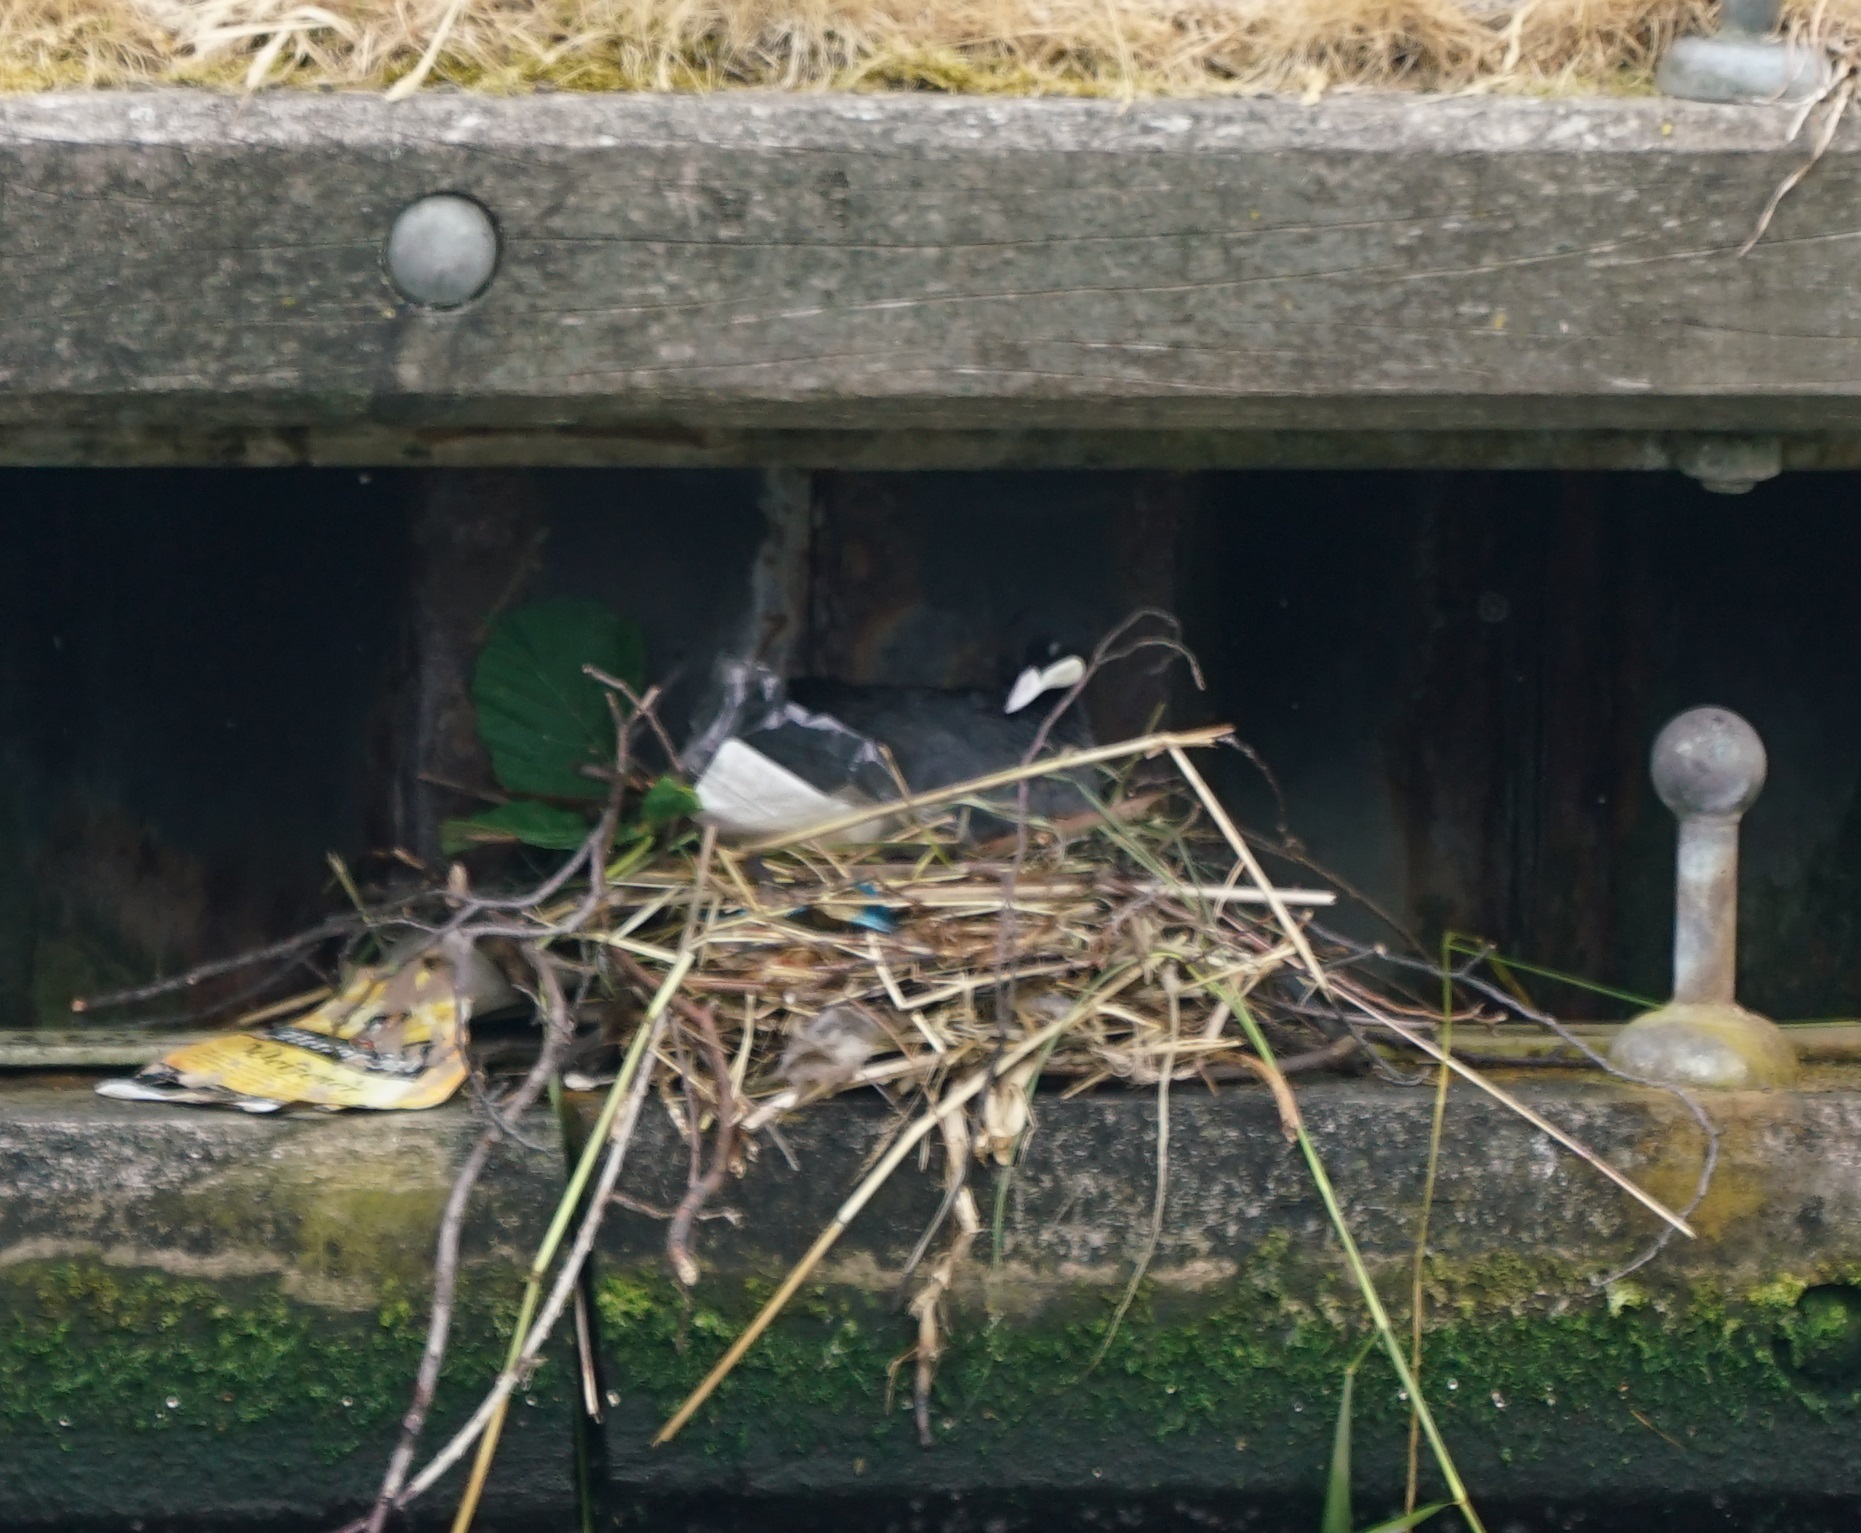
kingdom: Animalia
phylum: Chordata
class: Aves
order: Gruiformes
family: Rallidae
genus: Fulica
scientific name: Fulica atra
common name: Eurasian coot
